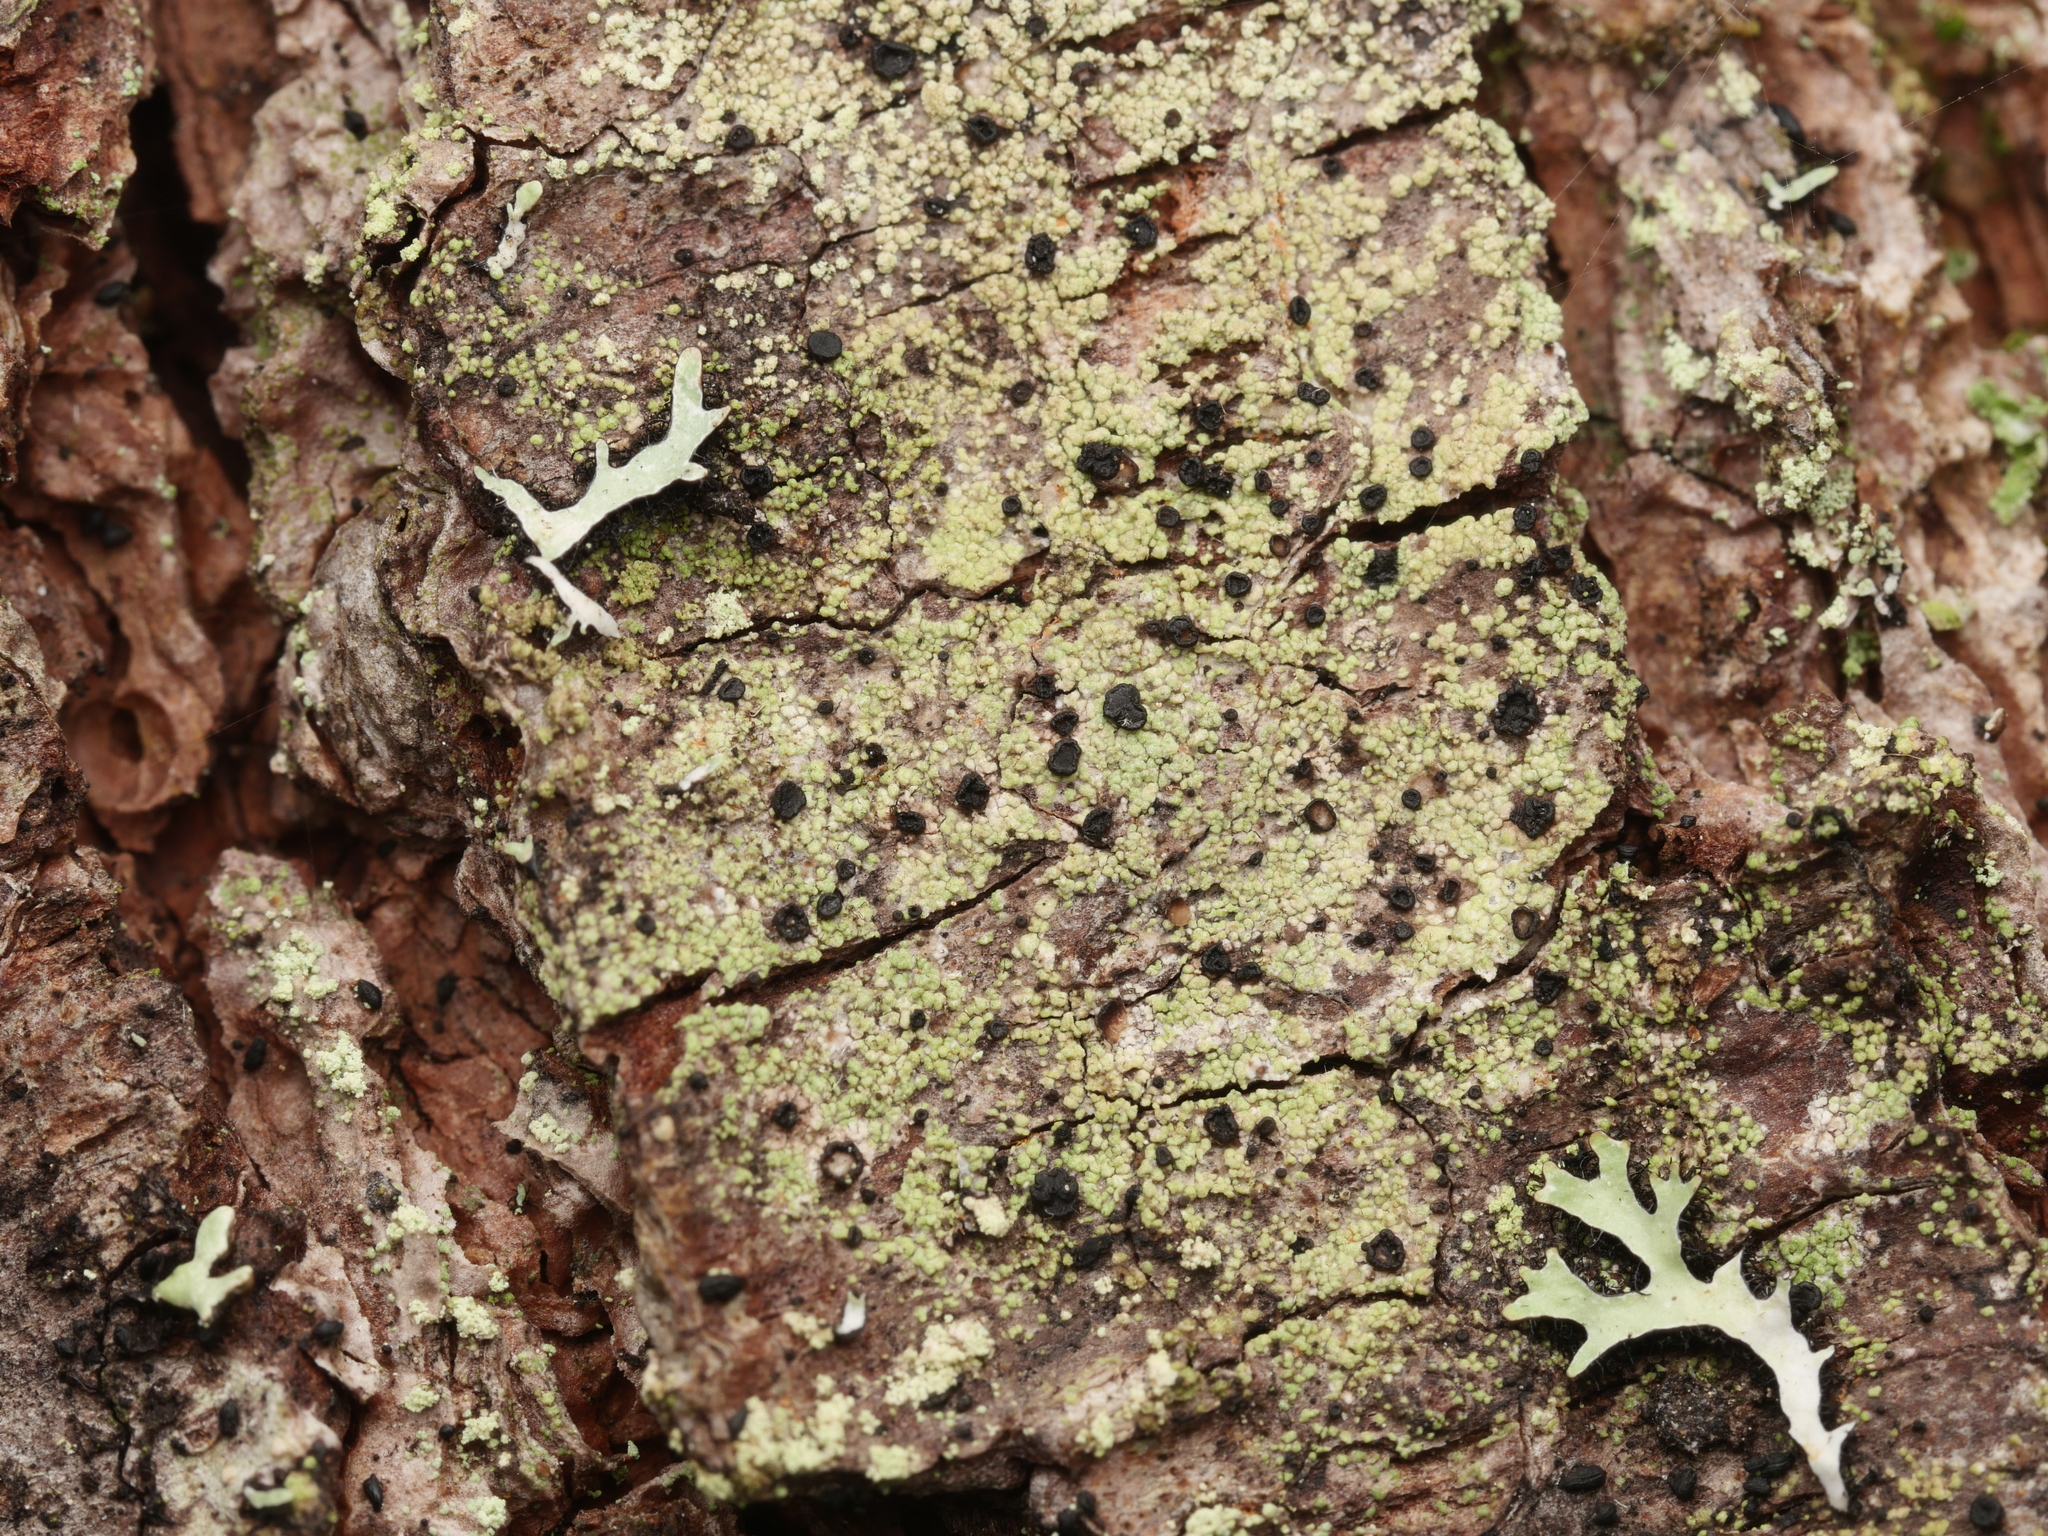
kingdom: Fungi
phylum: Ascomycota
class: Lecanoromycetes
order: Lecanorales
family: Ramalinaceae
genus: Bacidia
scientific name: Bacidia schweinitzii
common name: Surprise lichen
